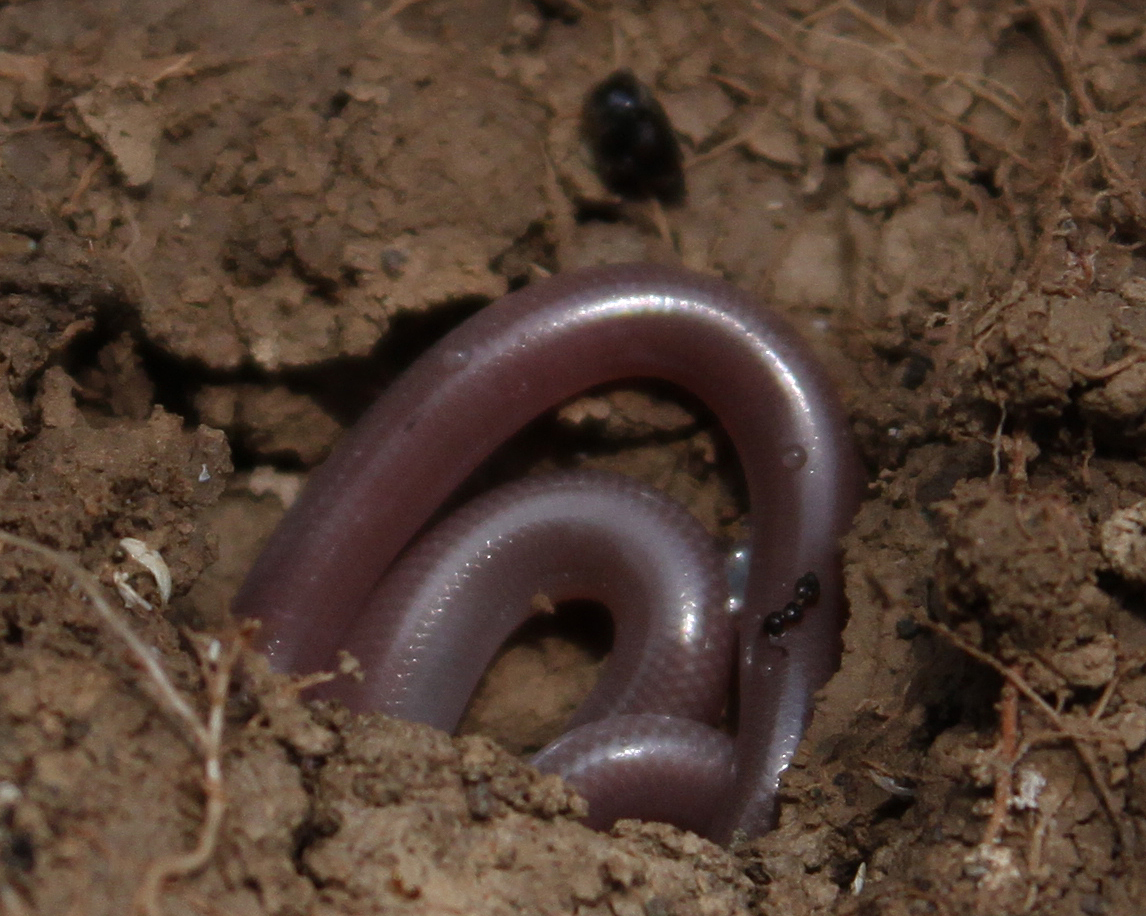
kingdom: Animalia
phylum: Chordata
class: Squamata
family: Typhlopidae
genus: Xerotyphlops
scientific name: Xerotyphlops vermicularis
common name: Eurasian blind snake
